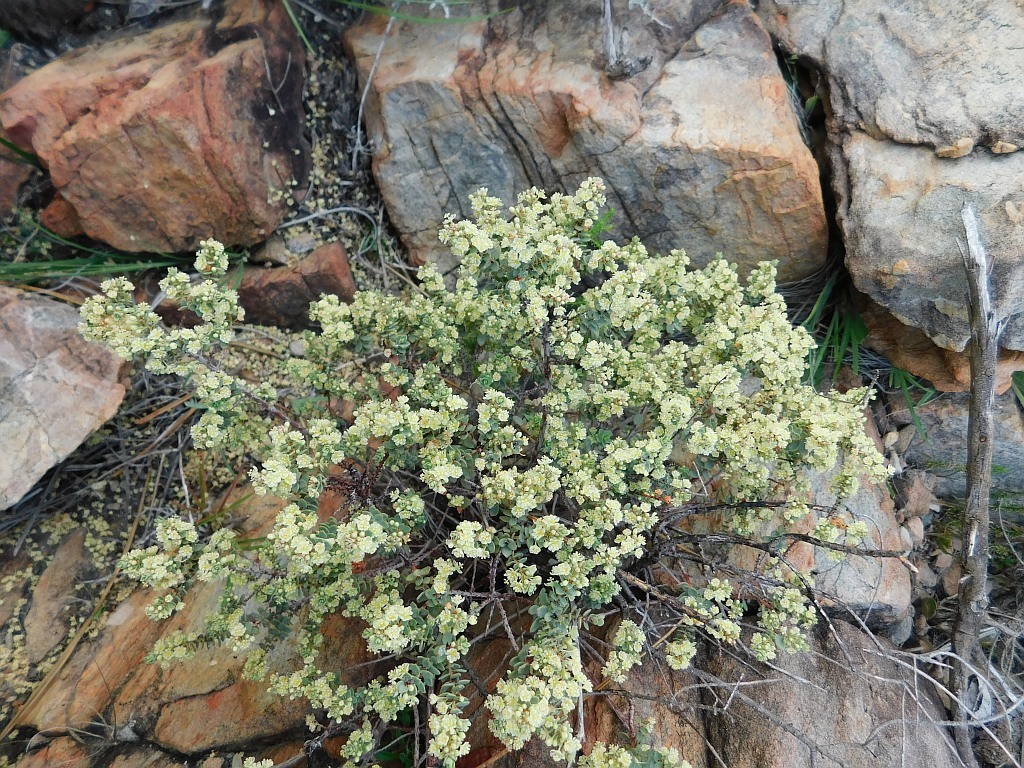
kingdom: Plantae
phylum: Tracheophyta
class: Magnoliopsida
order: Malpighiales
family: Peraceae
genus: Clutia
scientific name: Clutia alaternoides
